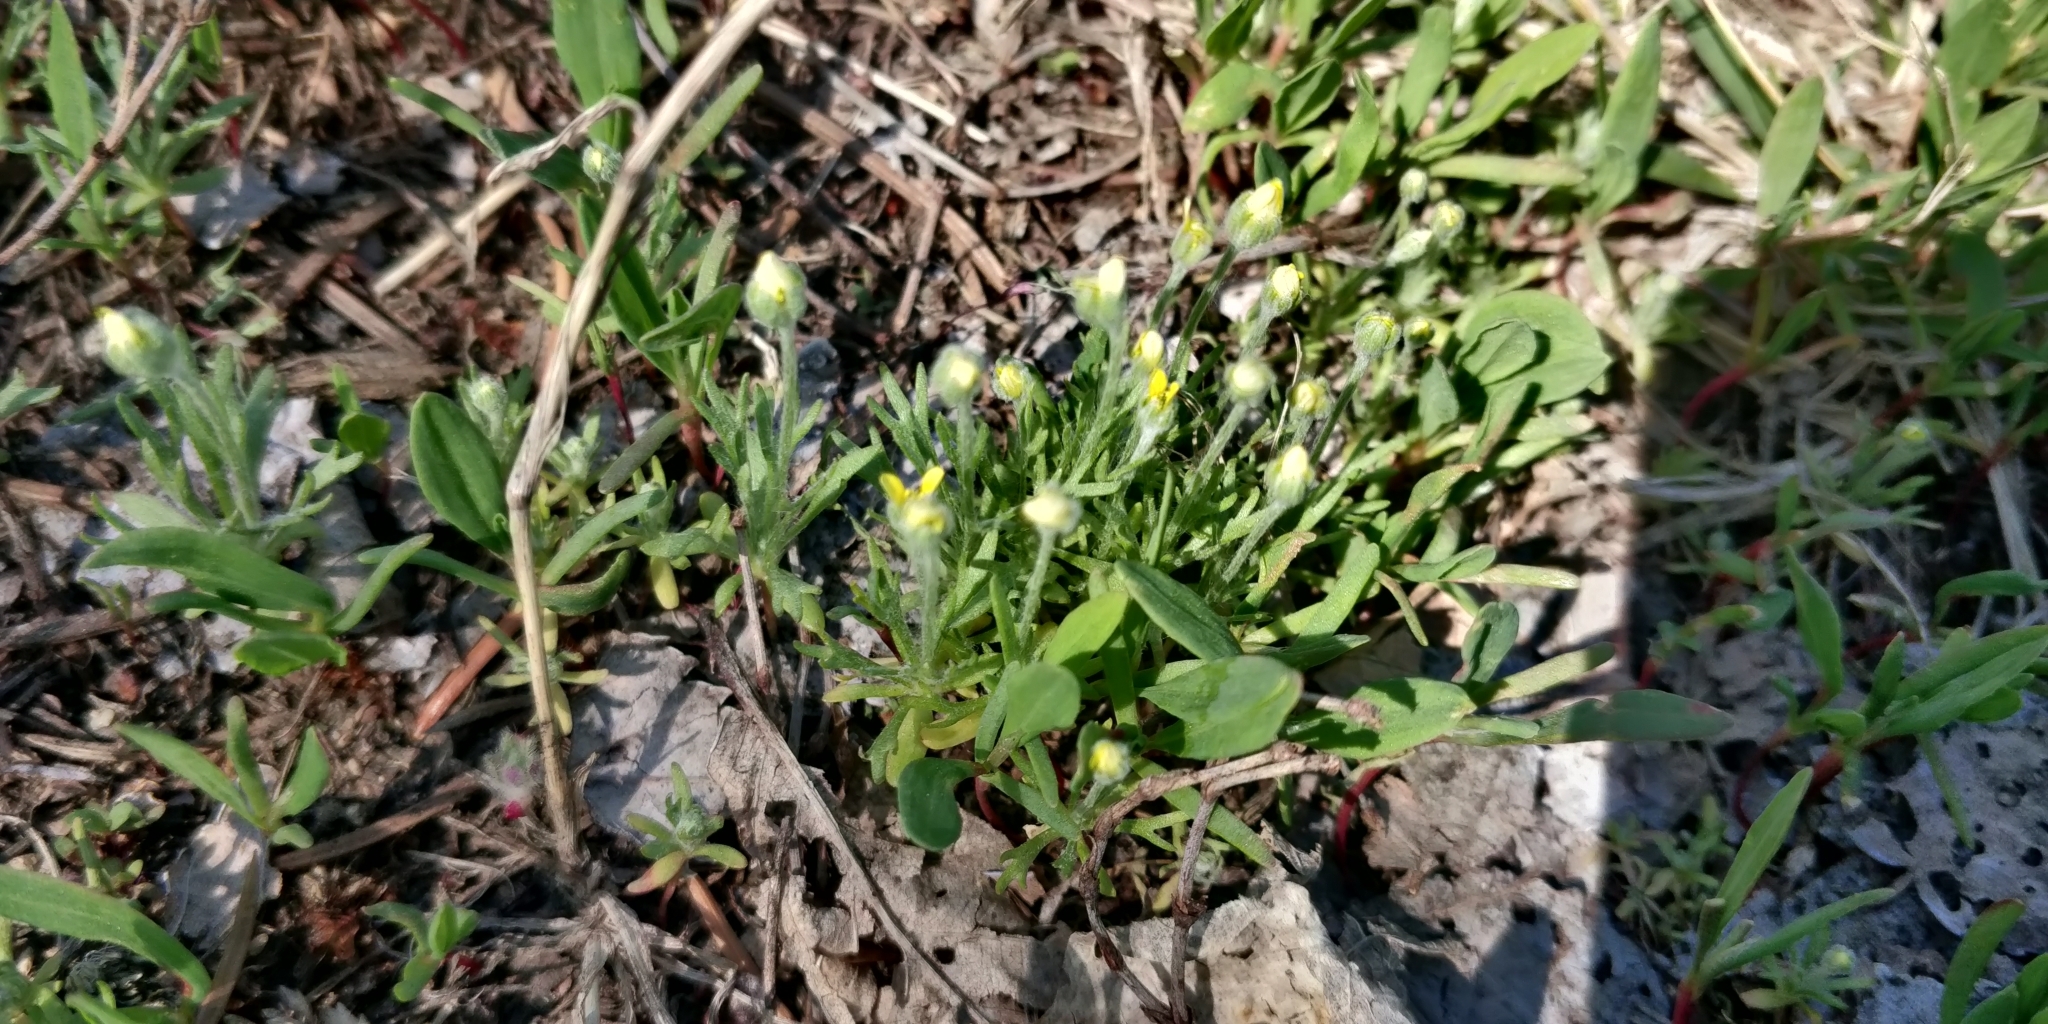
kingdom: Plantae
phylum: Tracheophyta
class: Magnoliopsida
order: Ranunculales
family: Ranunculaceae
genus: Ceratocephala
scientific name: Ceratocephala orthoceras
